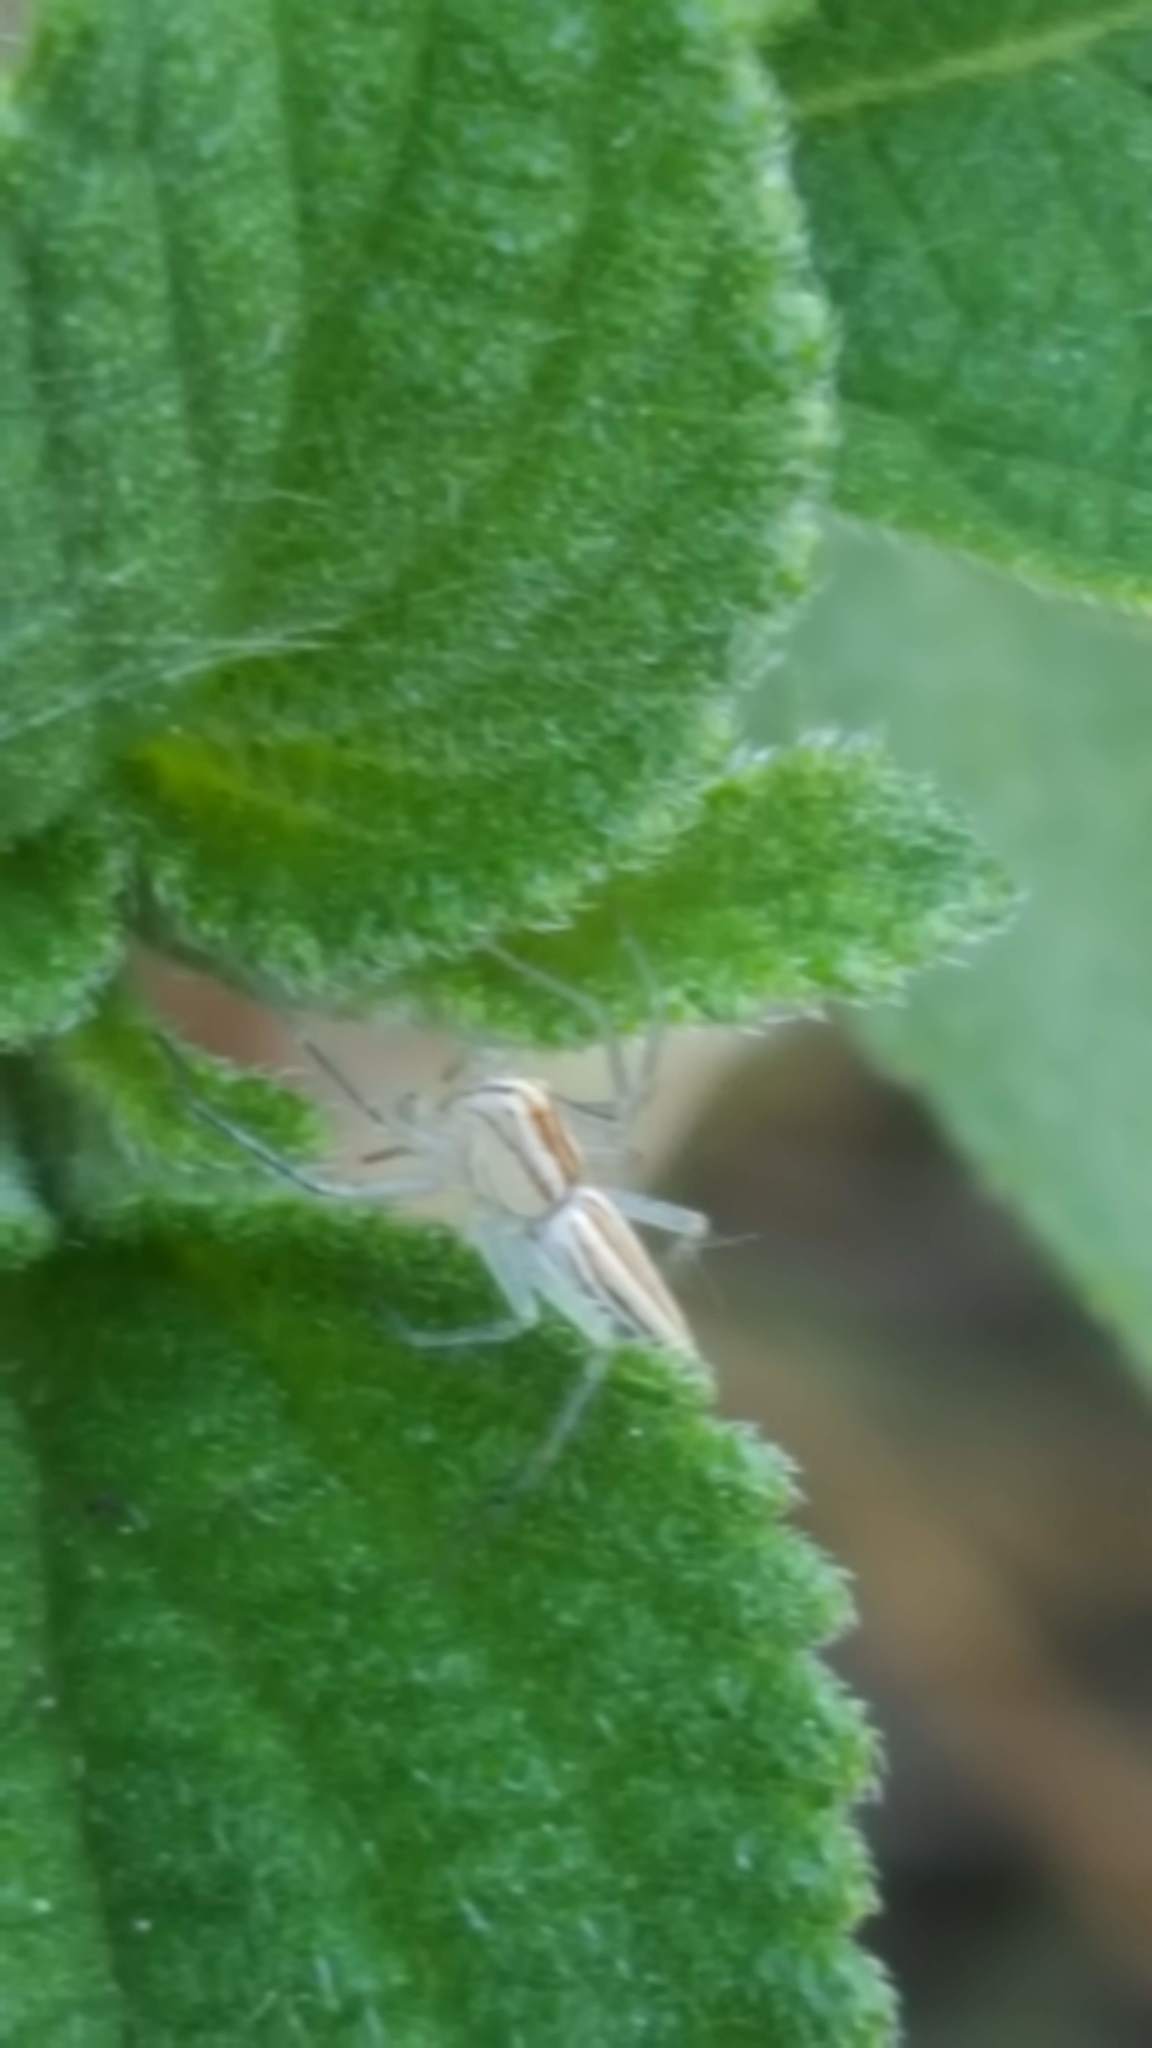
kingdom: Animalia
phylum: Arthropoda
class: Arachnida
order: Araneae
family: Oxyopidae
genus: Oxyopes
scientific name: Oxyopes macilentus
